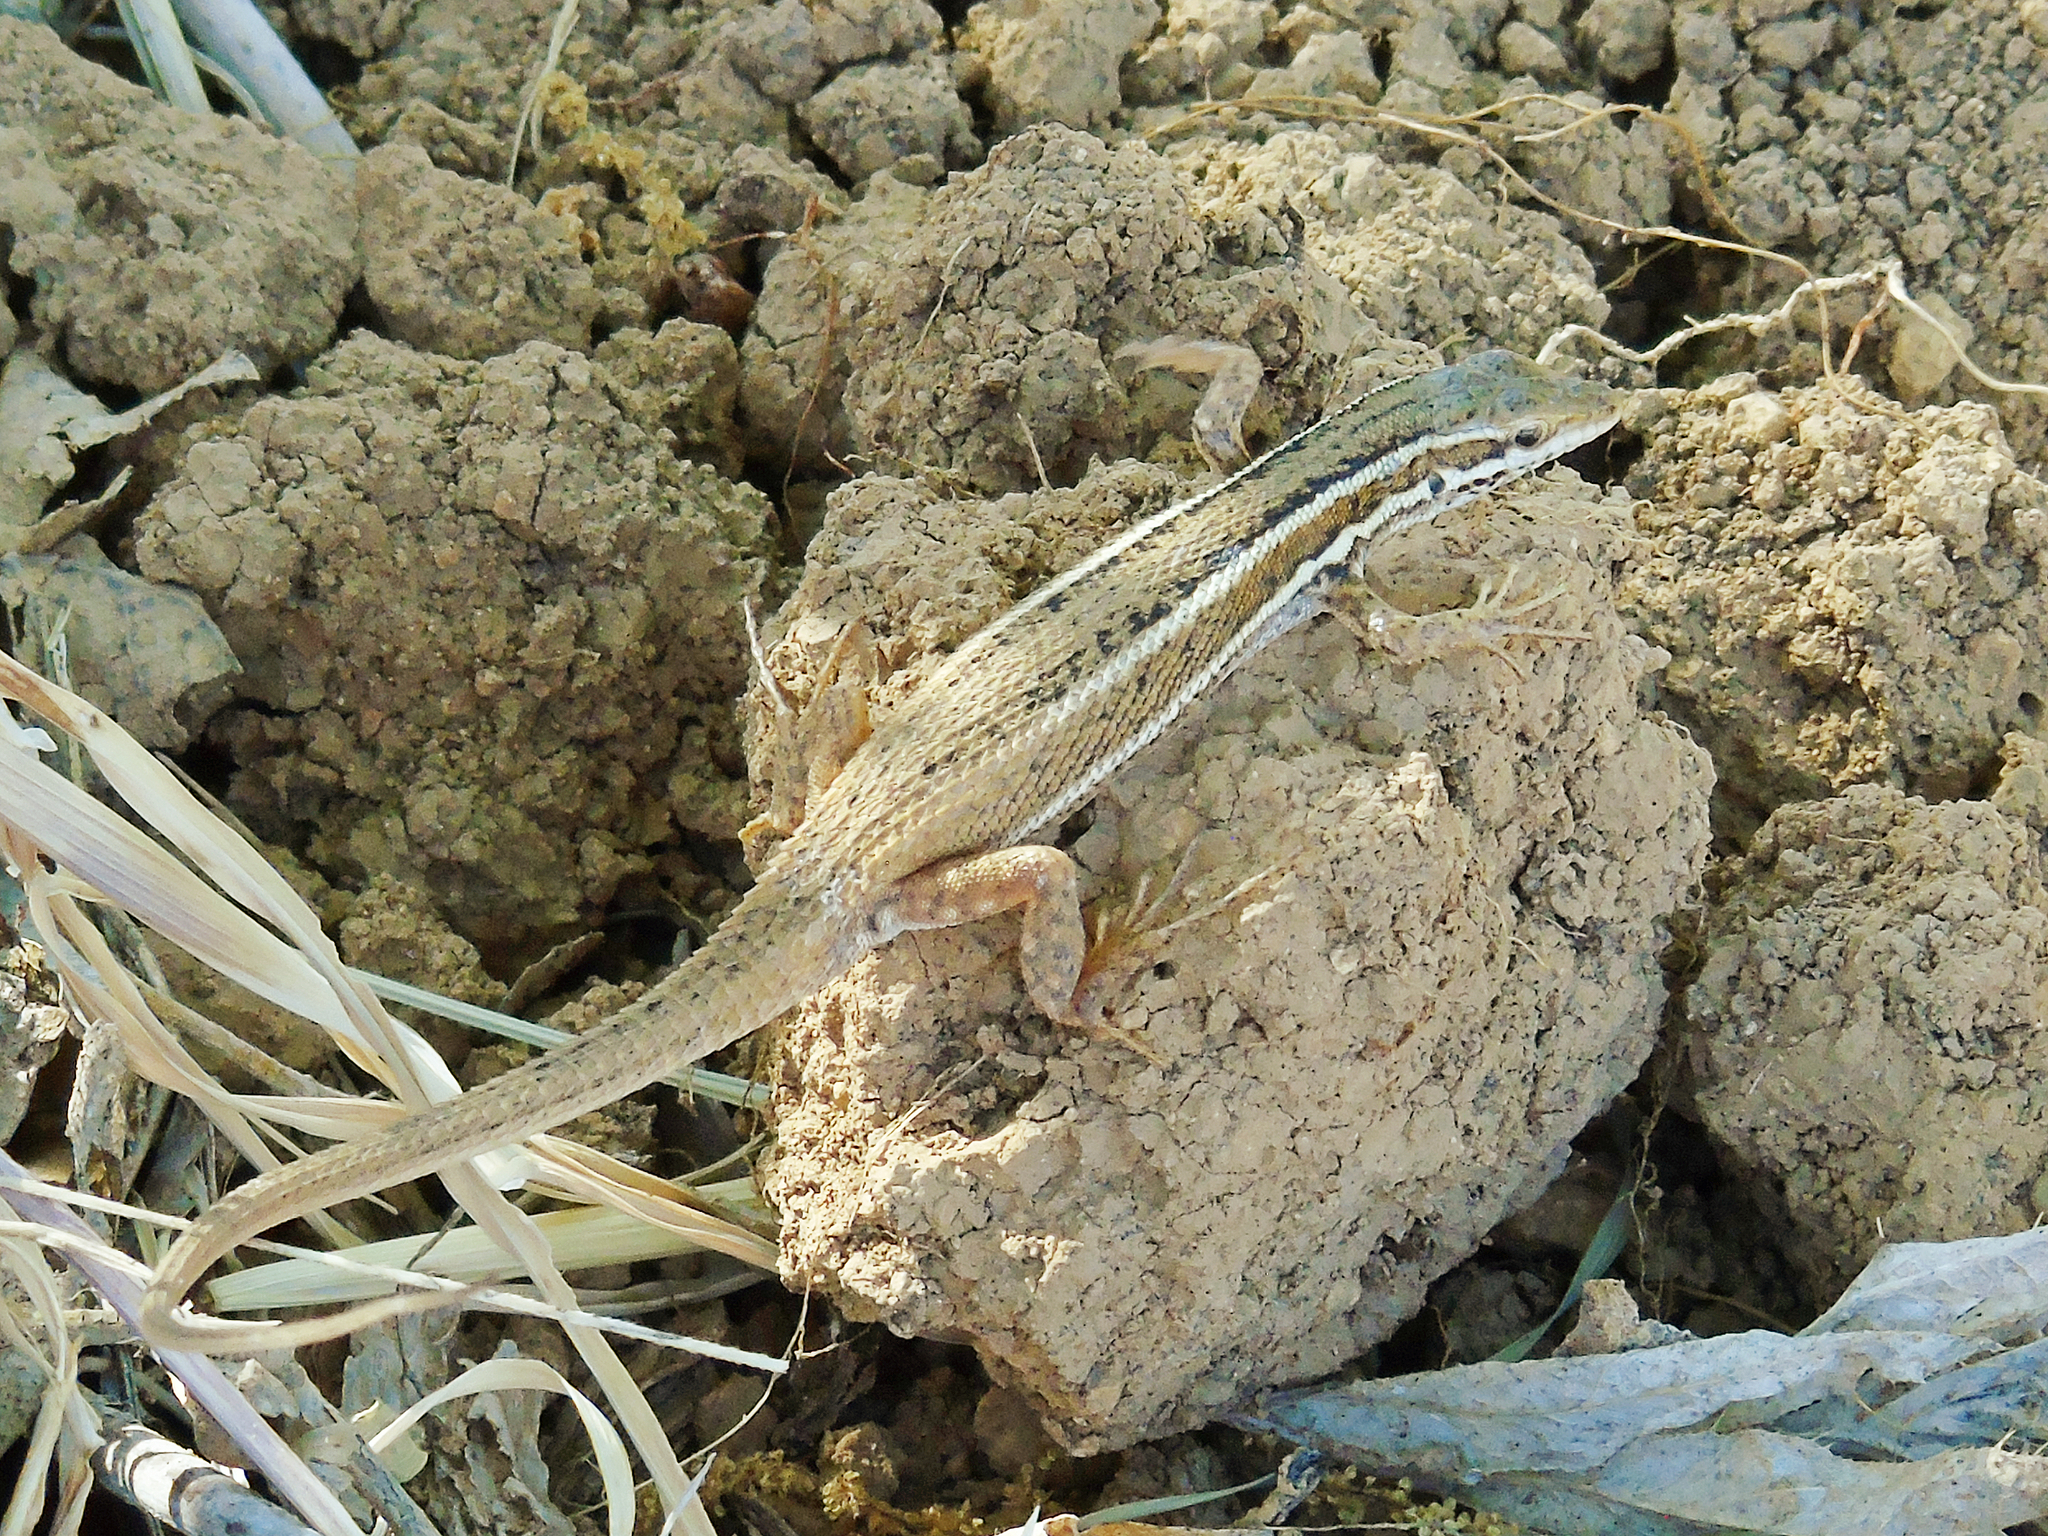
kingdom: Animalia
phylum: Chordata
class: Squamata
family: Lacertidae
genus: Ophisops
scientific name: Ophisops elegans
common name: Snake-eyed lizard
